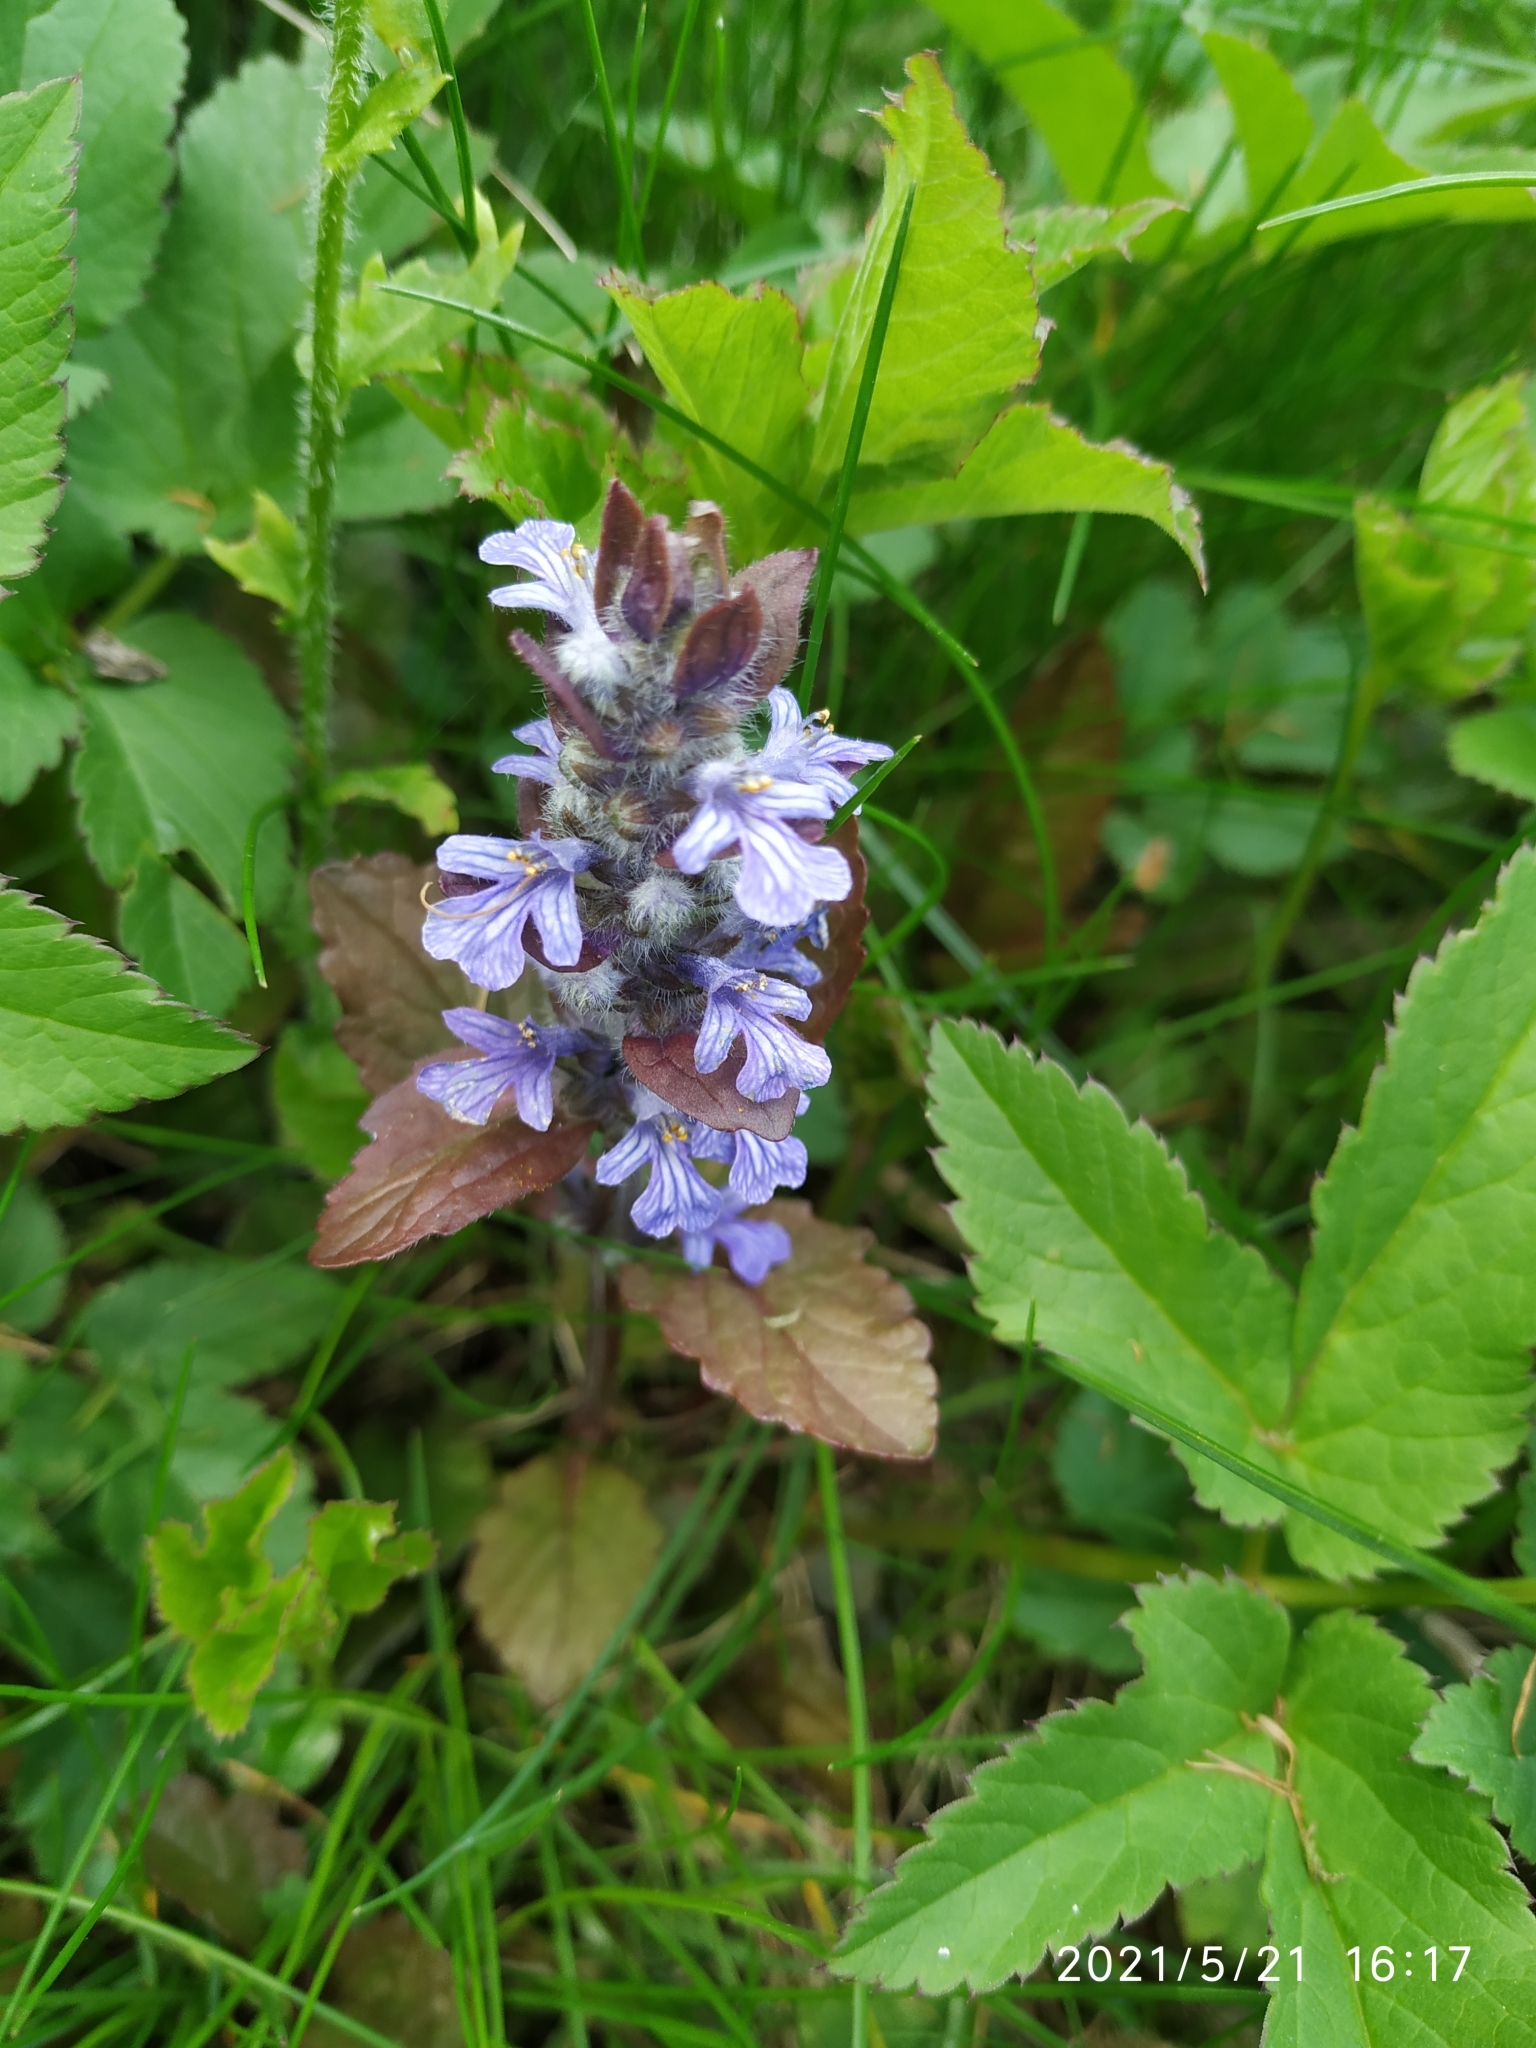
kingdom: Plantae
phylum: Tracheophyta
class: Magnoliopsida
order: Lamiales
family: Lamiaceae
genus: Ajuga
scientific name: Ajuga reptans
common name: Bugle
